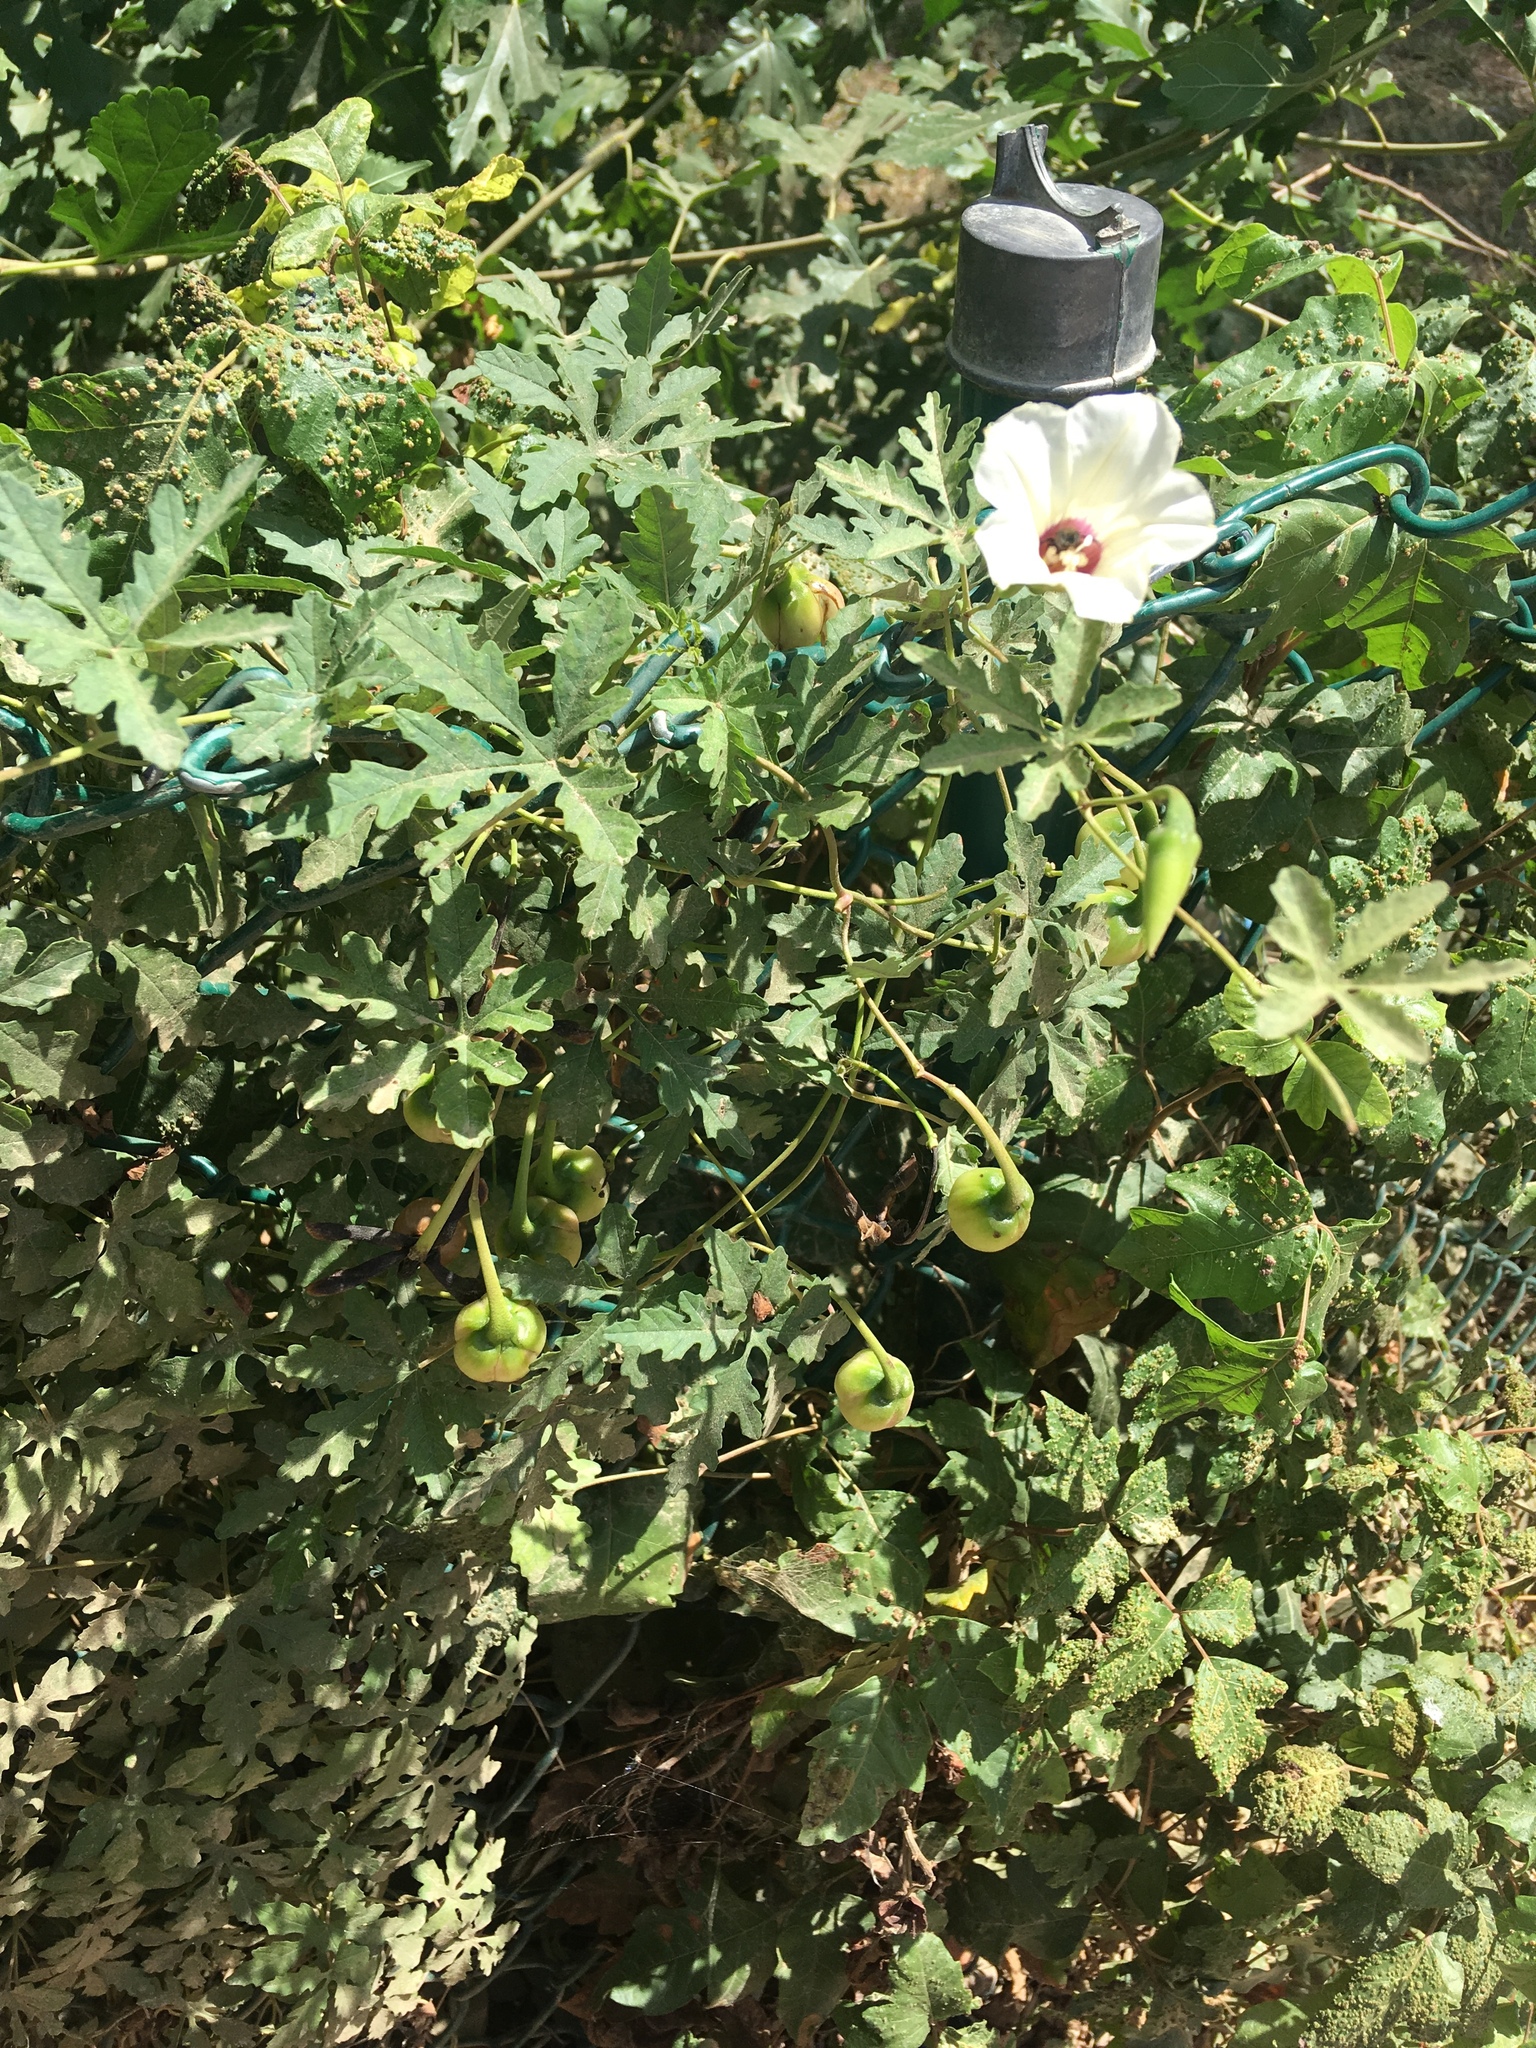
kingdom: Plantae
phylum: Tracheophyta
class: Magnoliopsida
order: Solanales
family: Convolvulaceae
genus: Distimake
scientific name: Distimake dissectus
